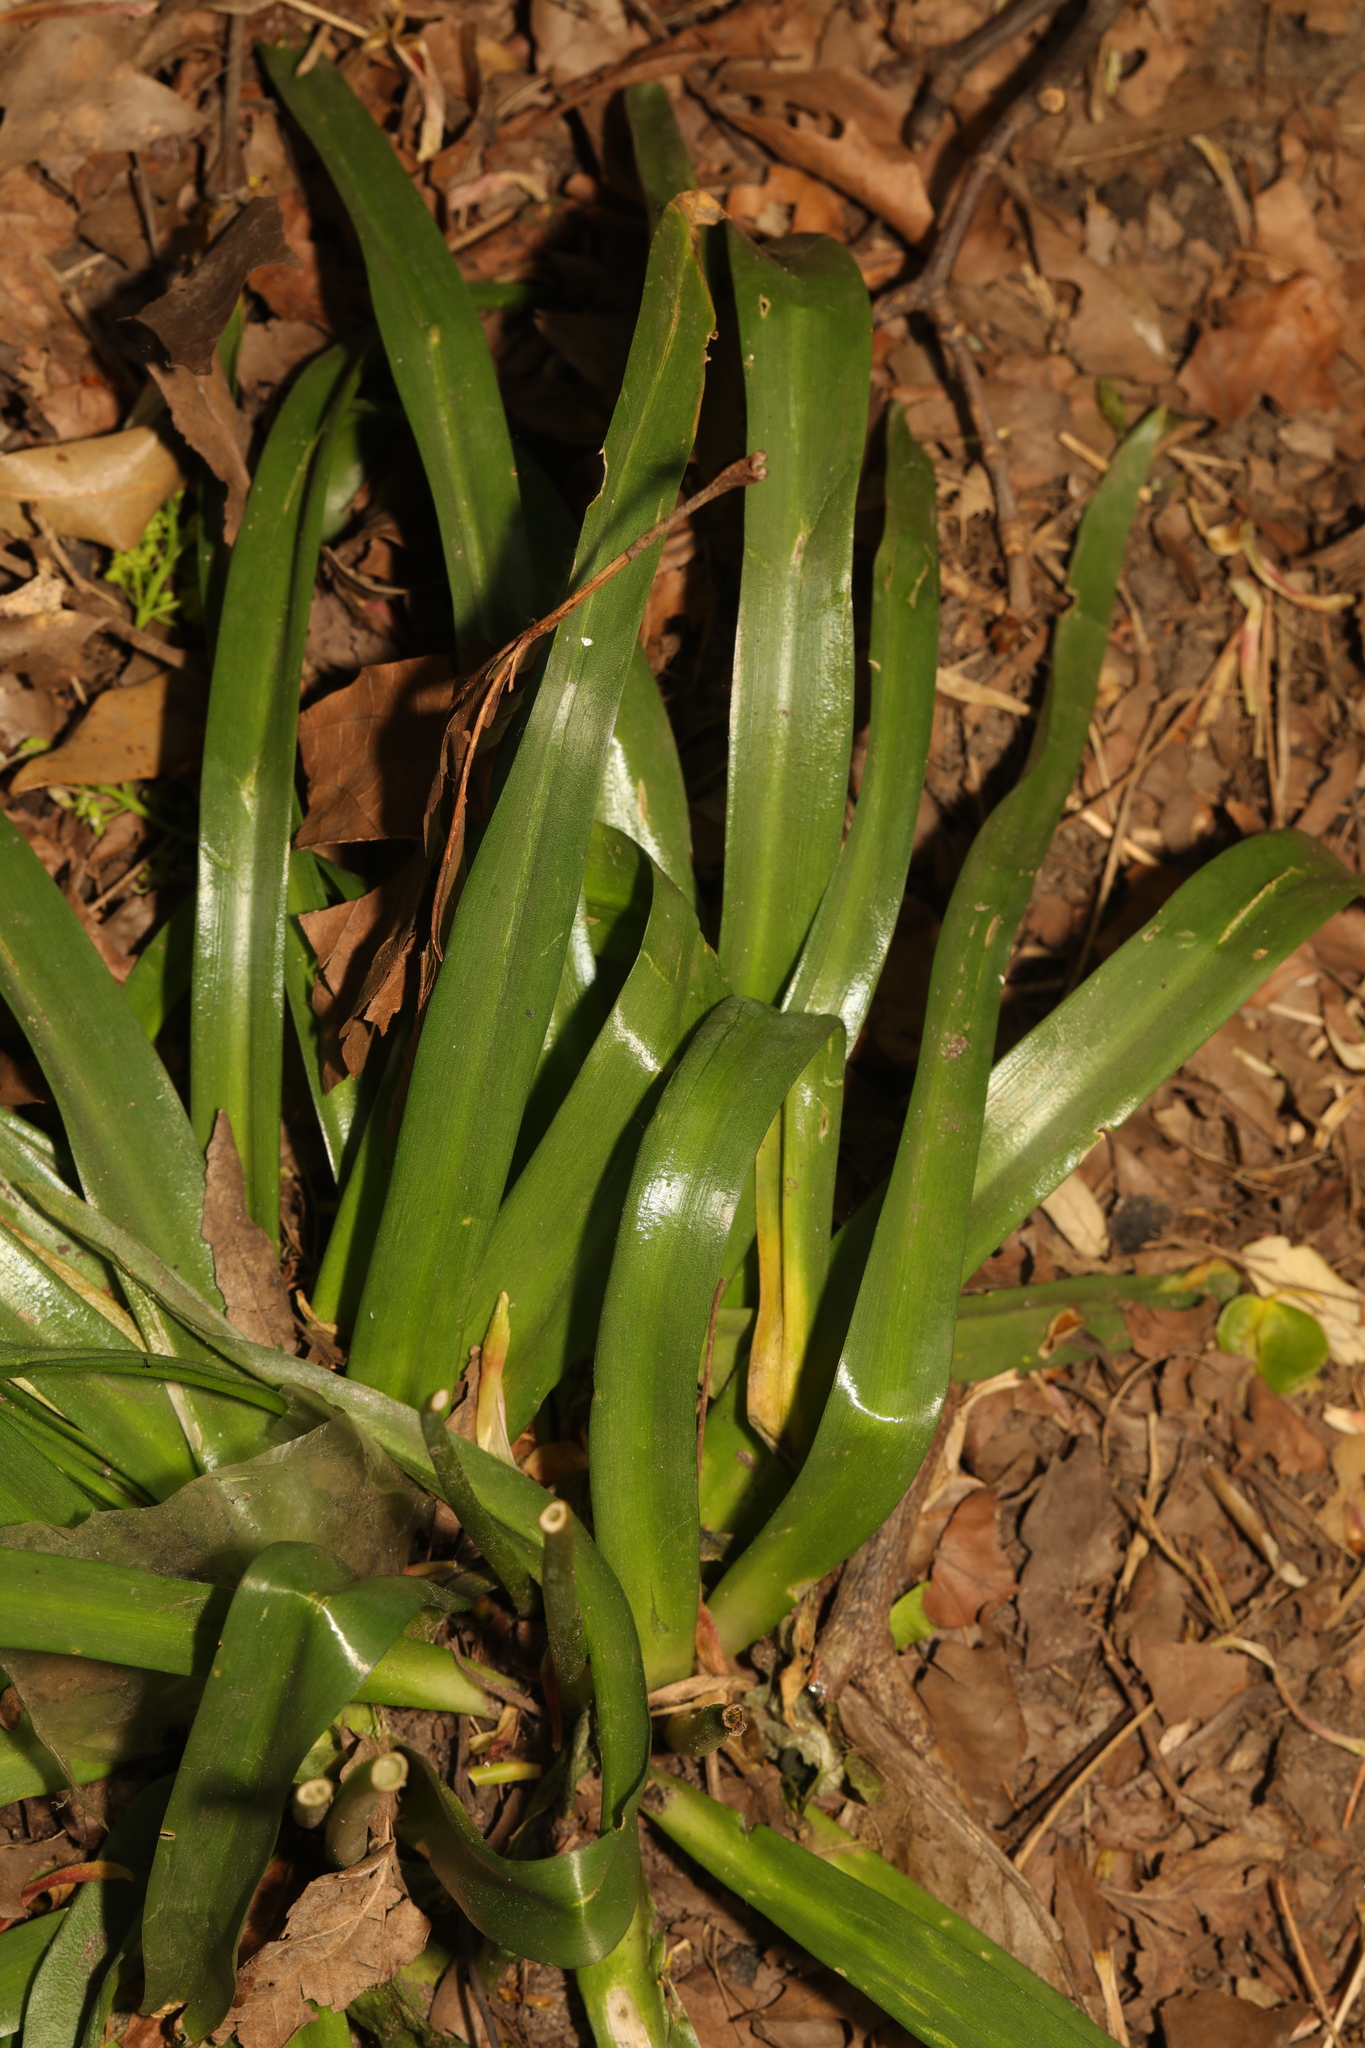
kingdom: Plantae
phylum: Tracheophyta
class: Liliopsida
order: Asparagales
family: Asparagaceae
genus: Hyacinthoides
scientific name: Hyacinthoides massartiana
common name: Hyacinthoides
